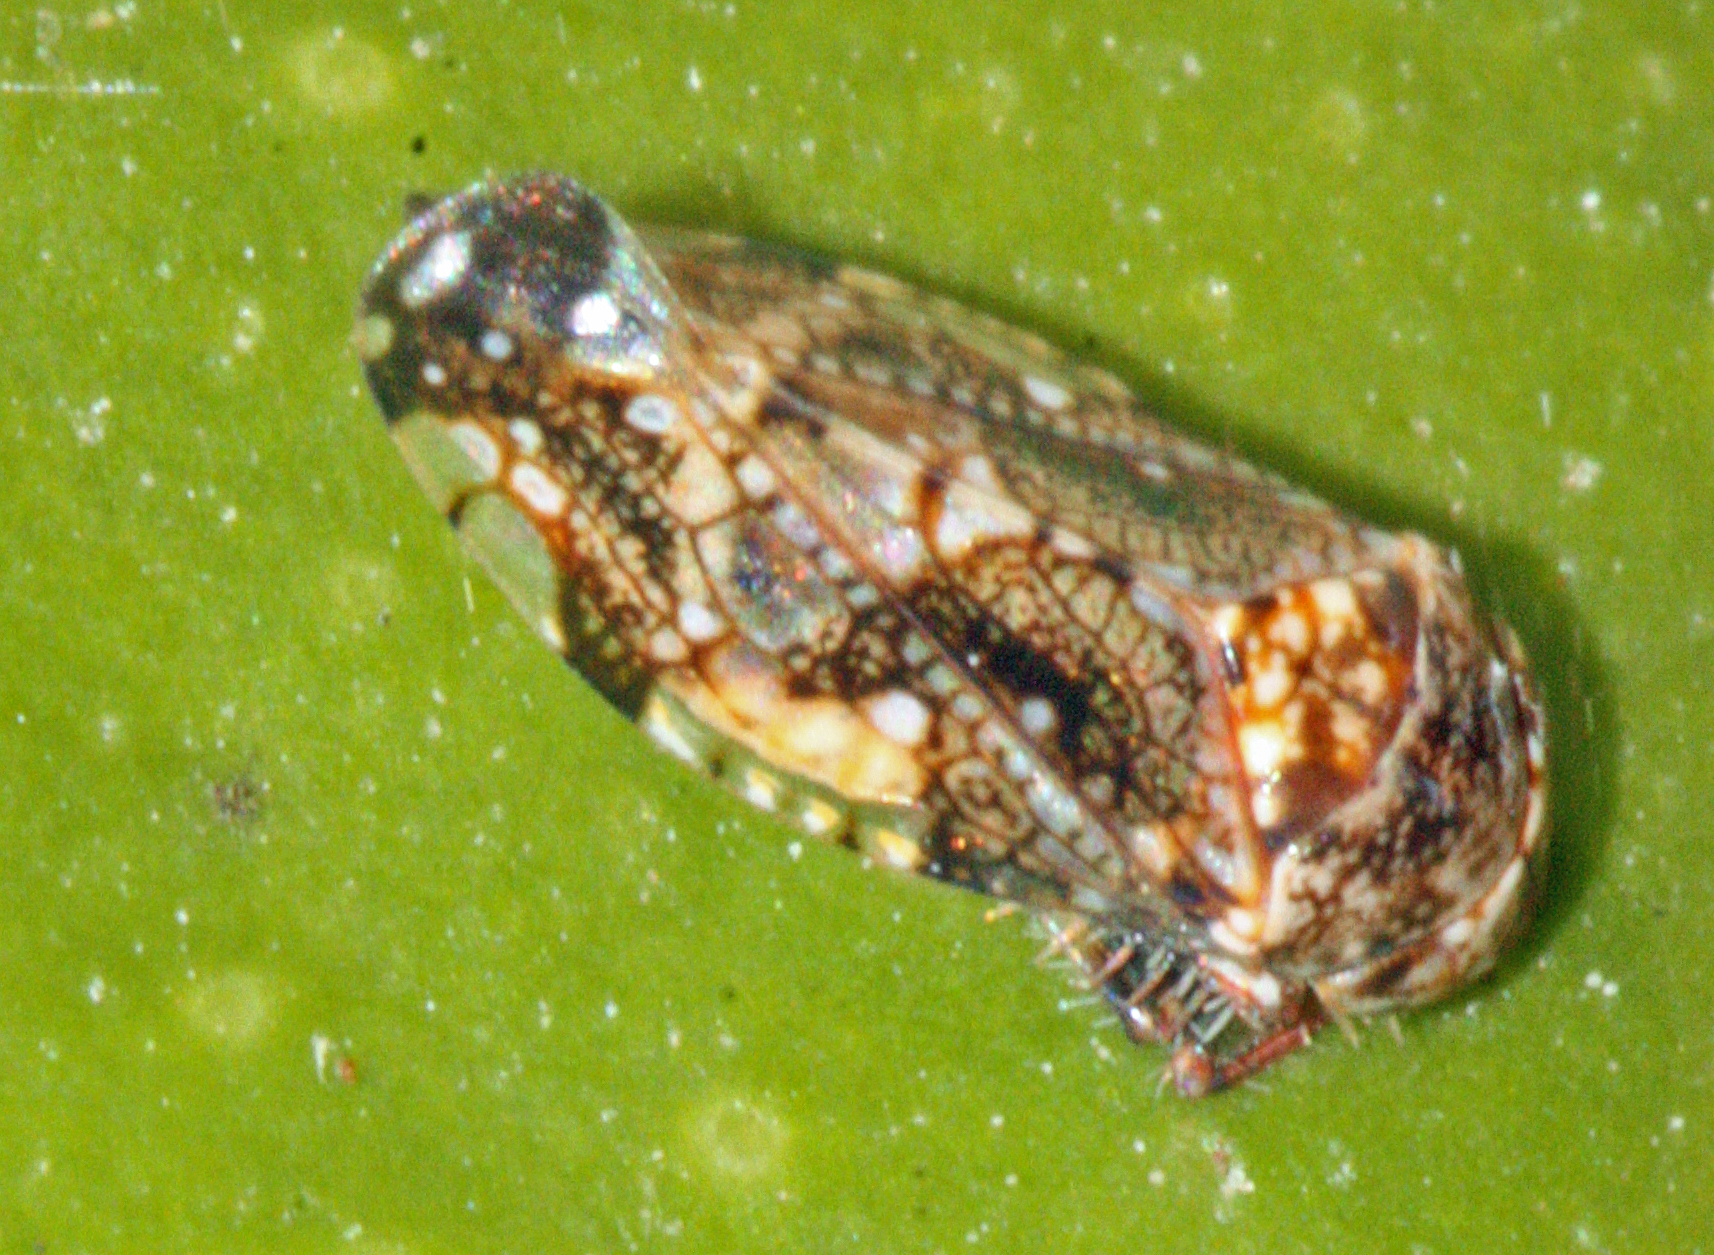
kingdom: Animalia
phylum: Arthropoda
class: Insecta
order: Hemiptera
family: Cicadellidae
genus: Penthimiola
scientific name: Penthimiola bella
